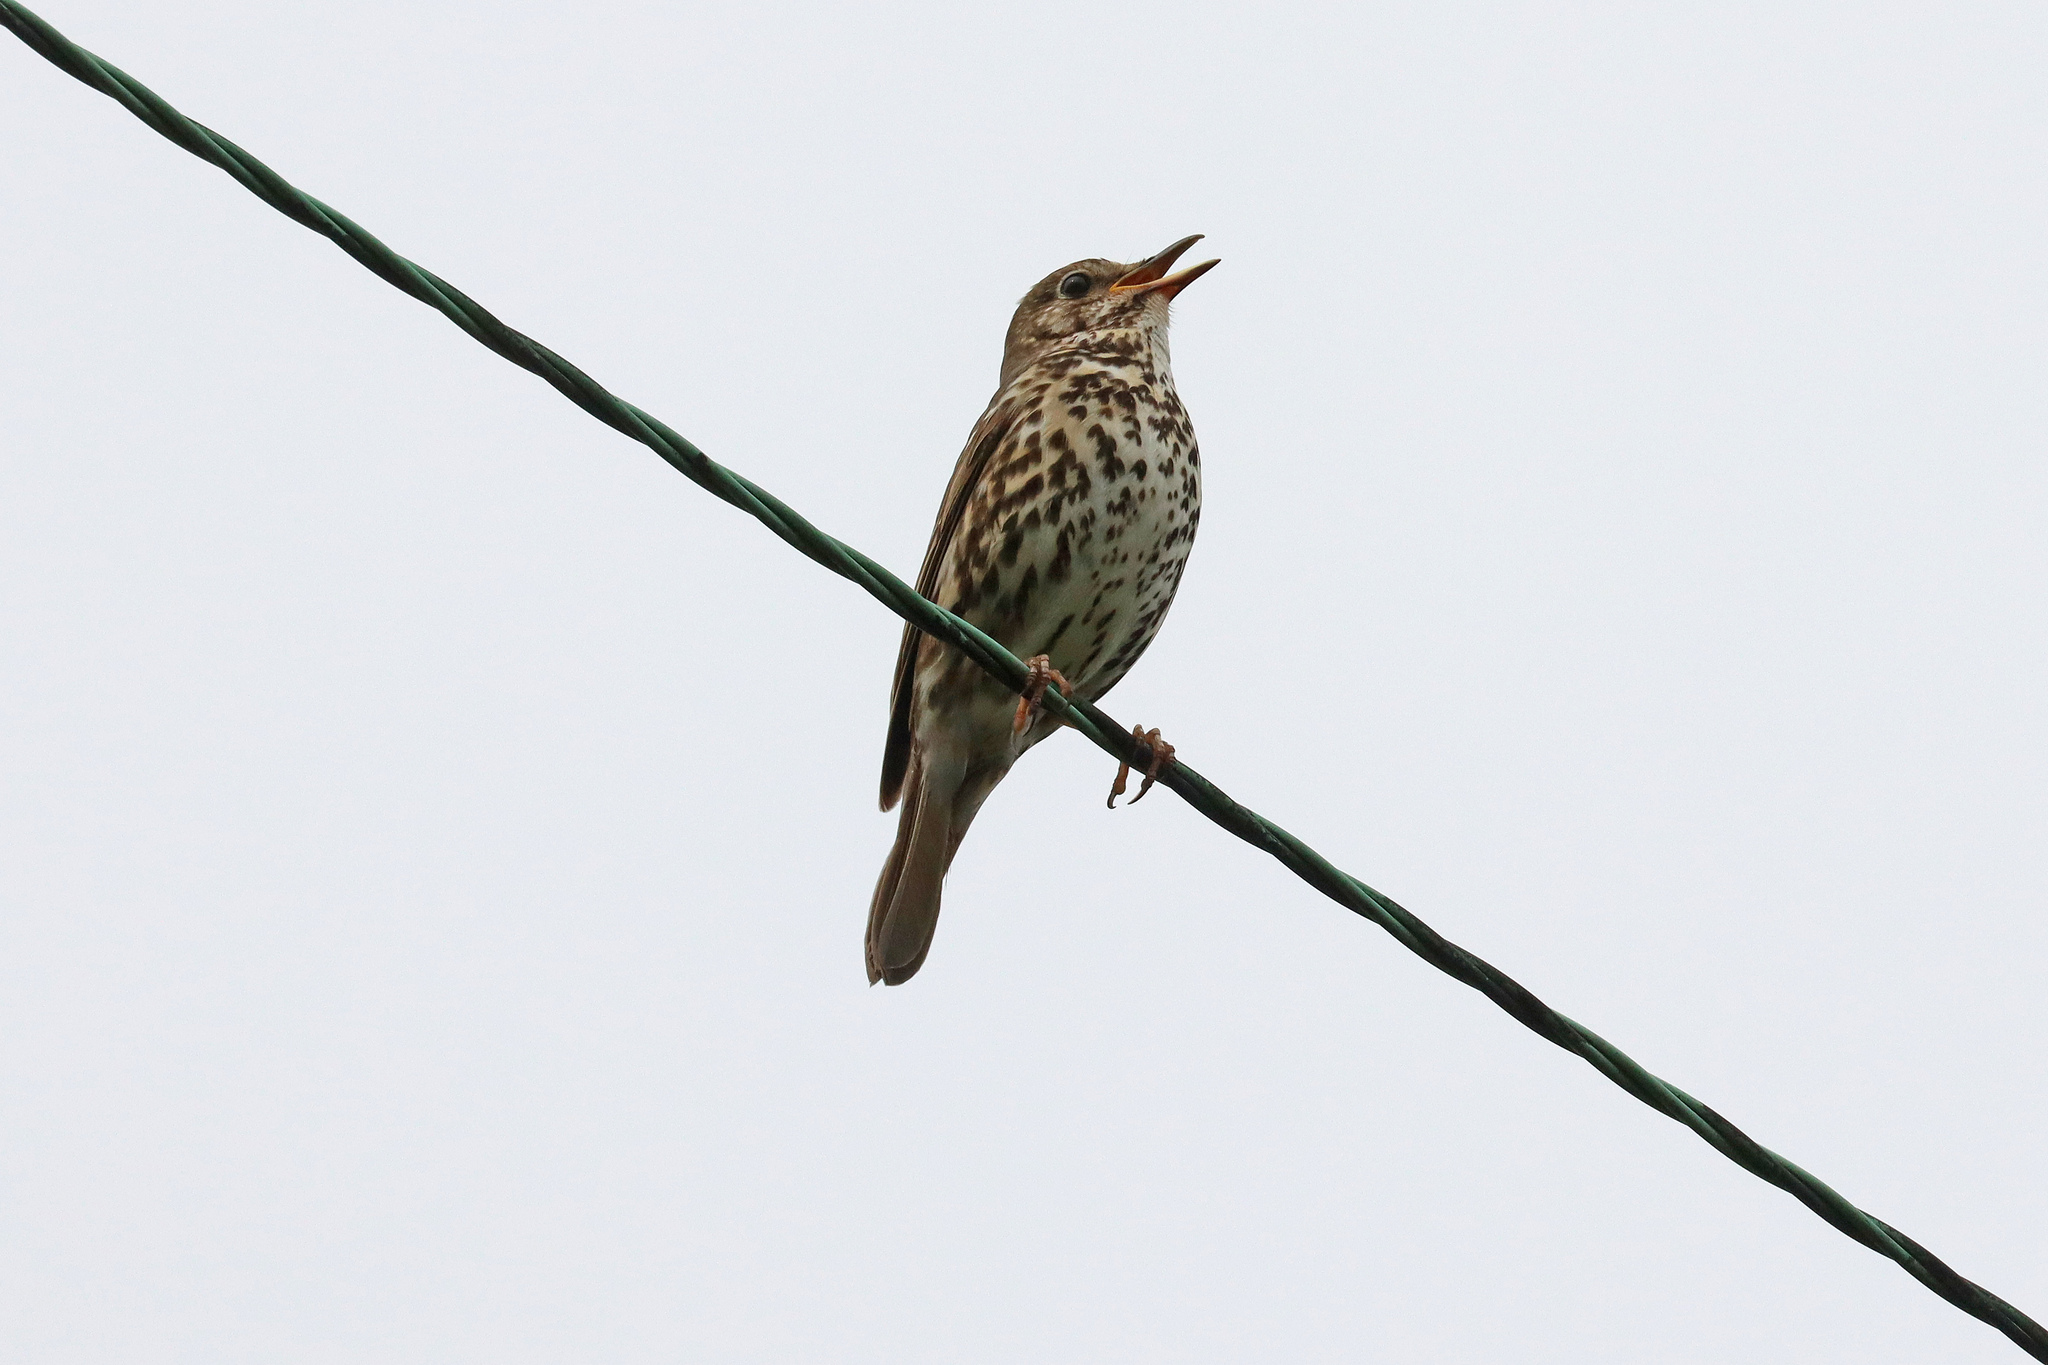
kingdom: Animalia
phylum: Chordata
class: Aves
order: Passeriformes
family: Turdidae
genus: Turdus
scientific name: Turdus philomelos
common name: Song thrush
